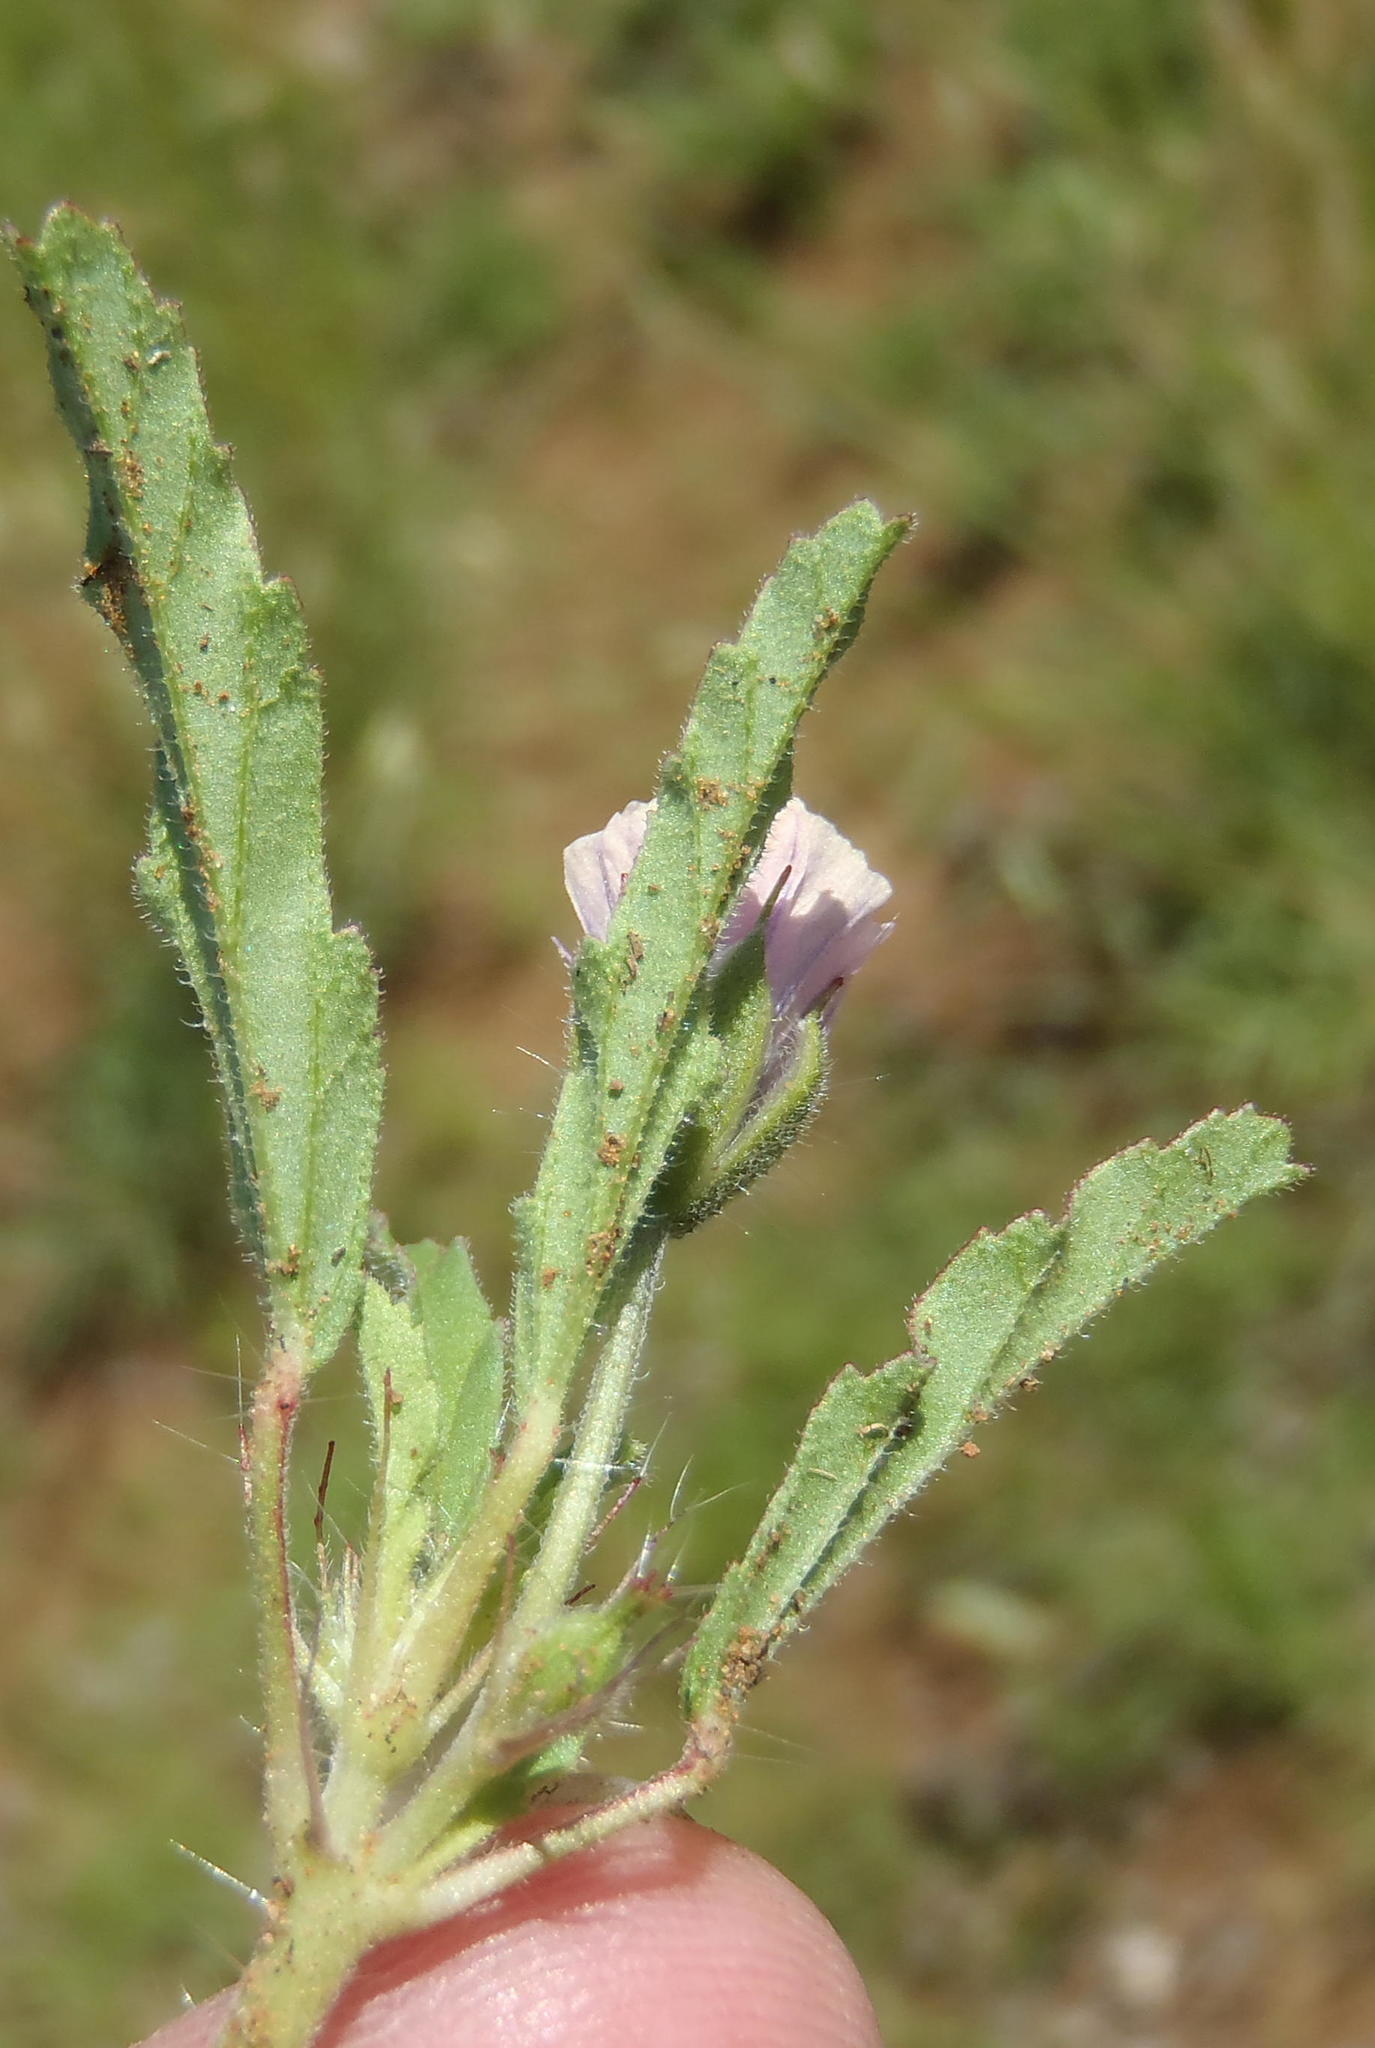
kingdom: Plantae
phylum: Tracheophyta
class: Magnoliopsida
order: Geraniales
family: Geraniaceae
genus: Monsonia
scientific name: Monsonia angustifolia
